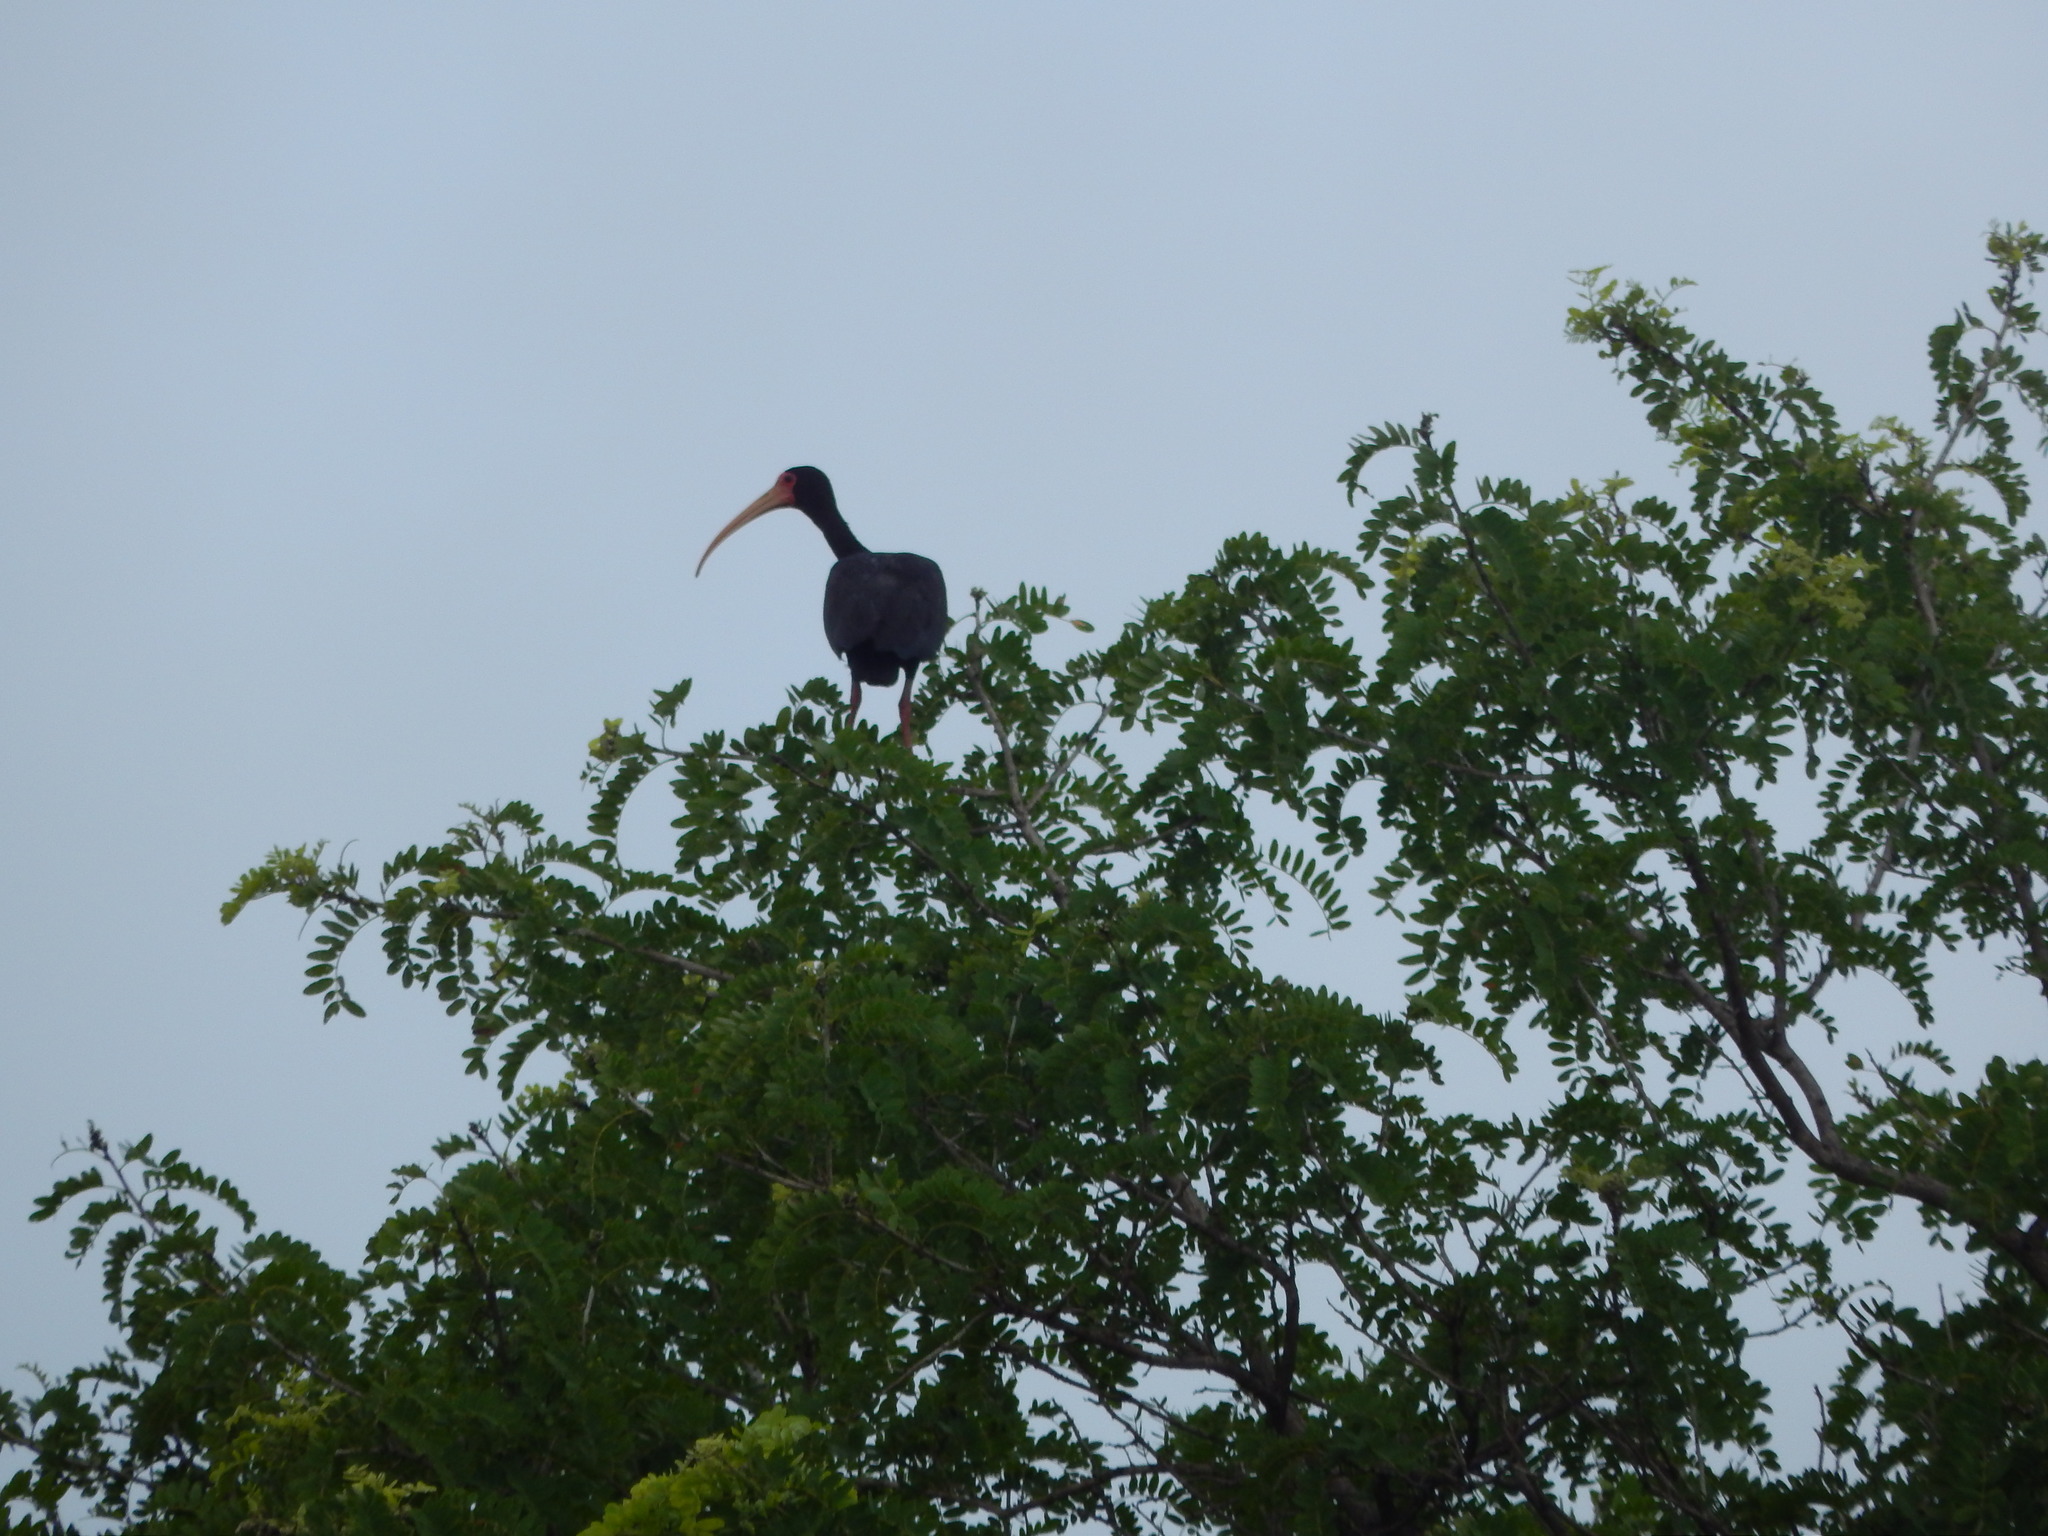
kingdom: Animalia
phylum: Chordata
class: Aves
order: Pelecaniformes
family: Threskiornithidae
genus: Phimosus
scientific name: Phimosus infuscatus
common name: Bare-faced ibis
